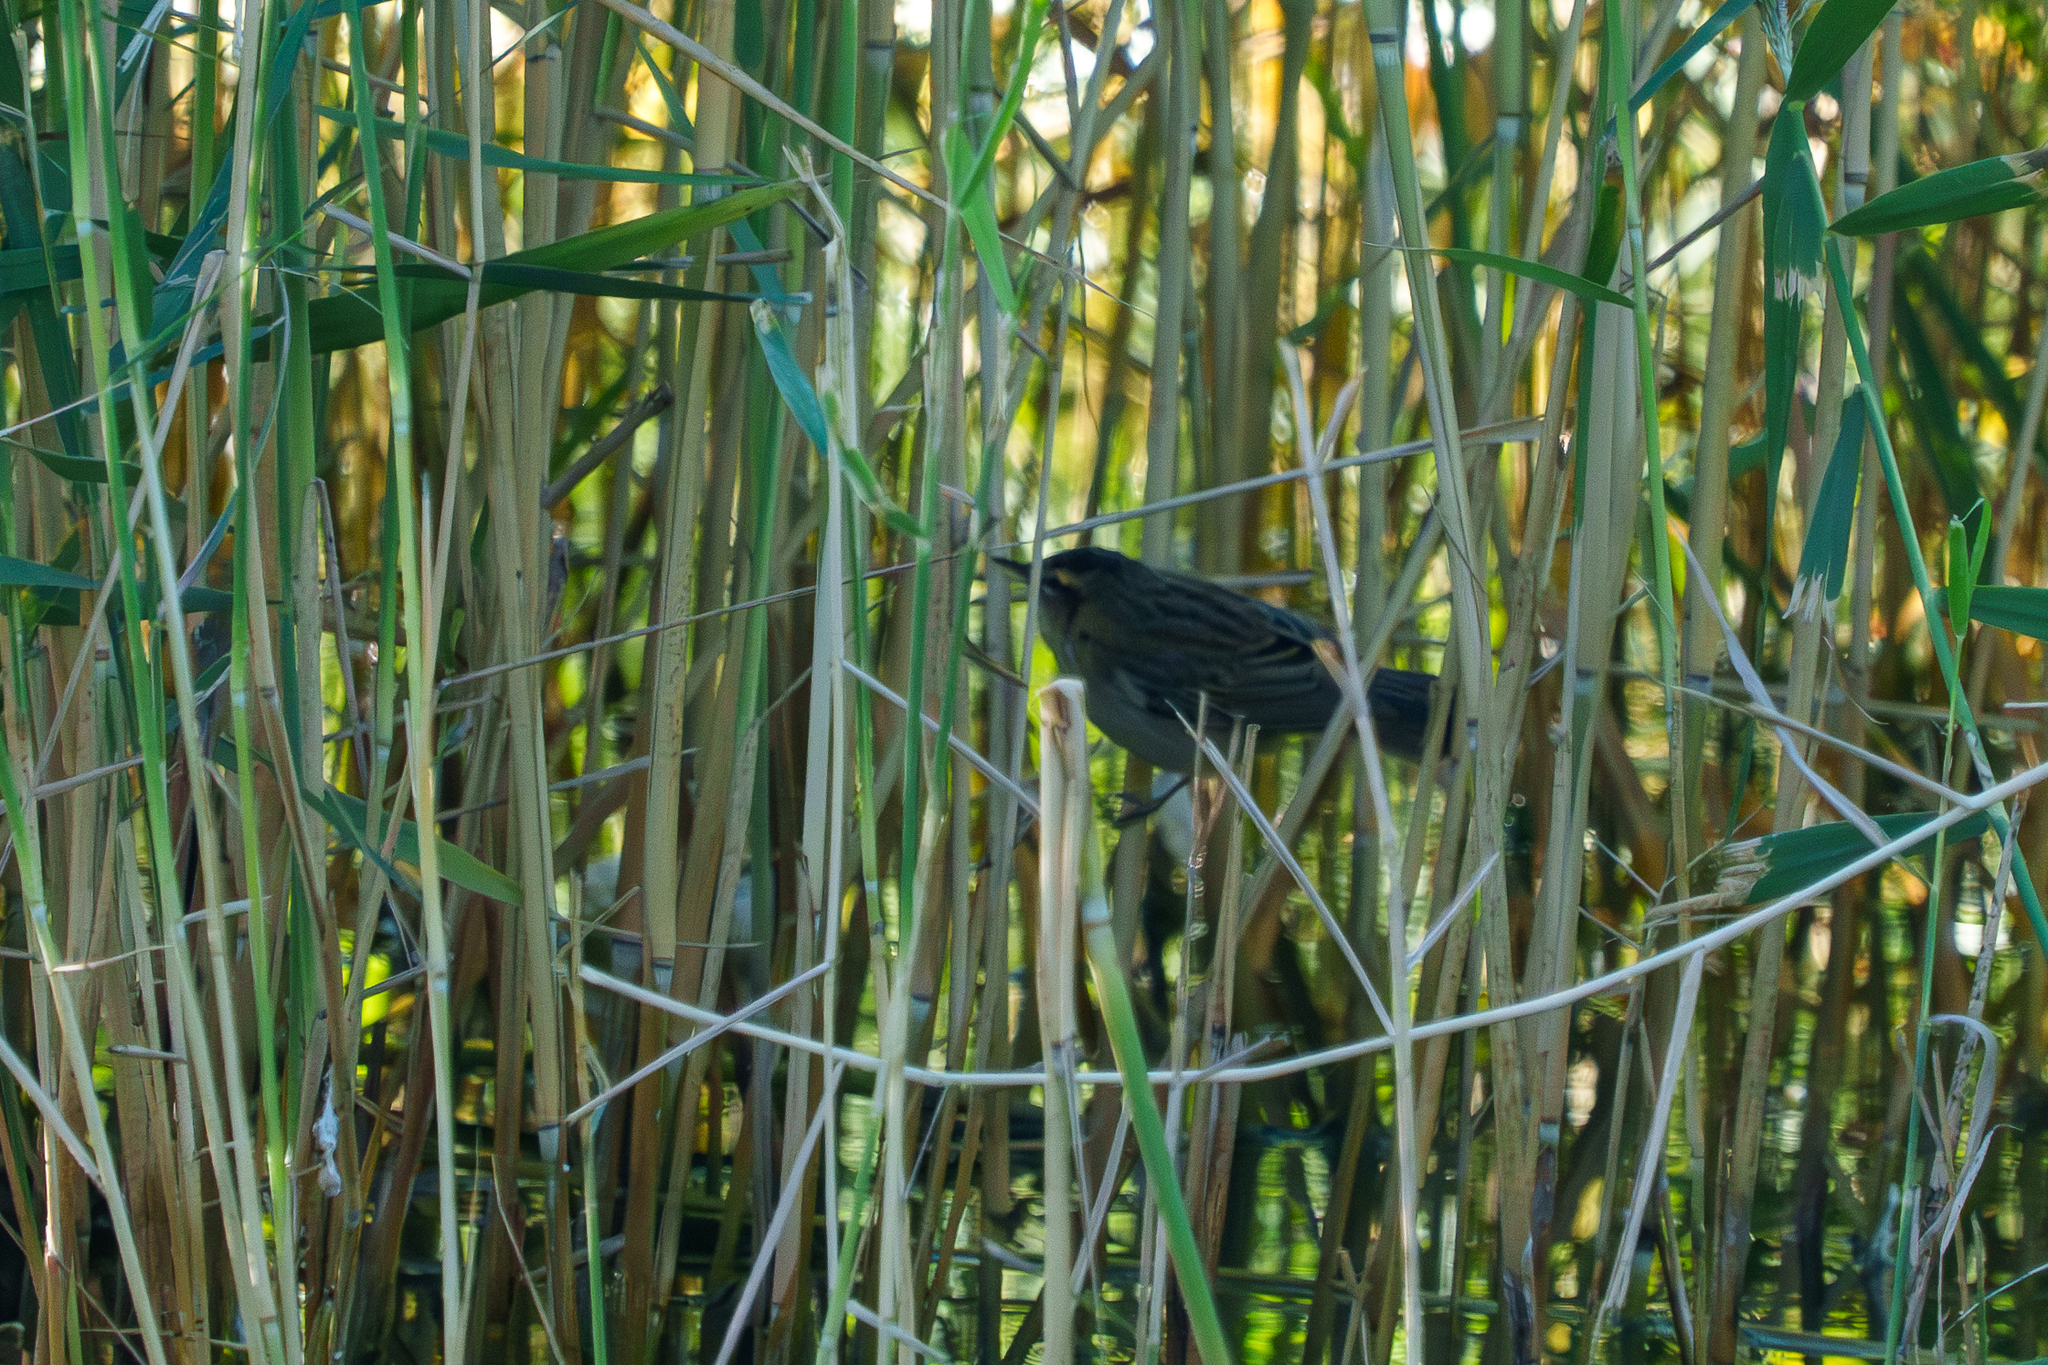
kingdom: Animalia
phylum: Chordata
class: Aves
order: Passeriformes
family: Acrocephalidae
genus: Acrocephalus
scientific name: Acrocephalus schoenobaenus
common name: Sedge warbler
